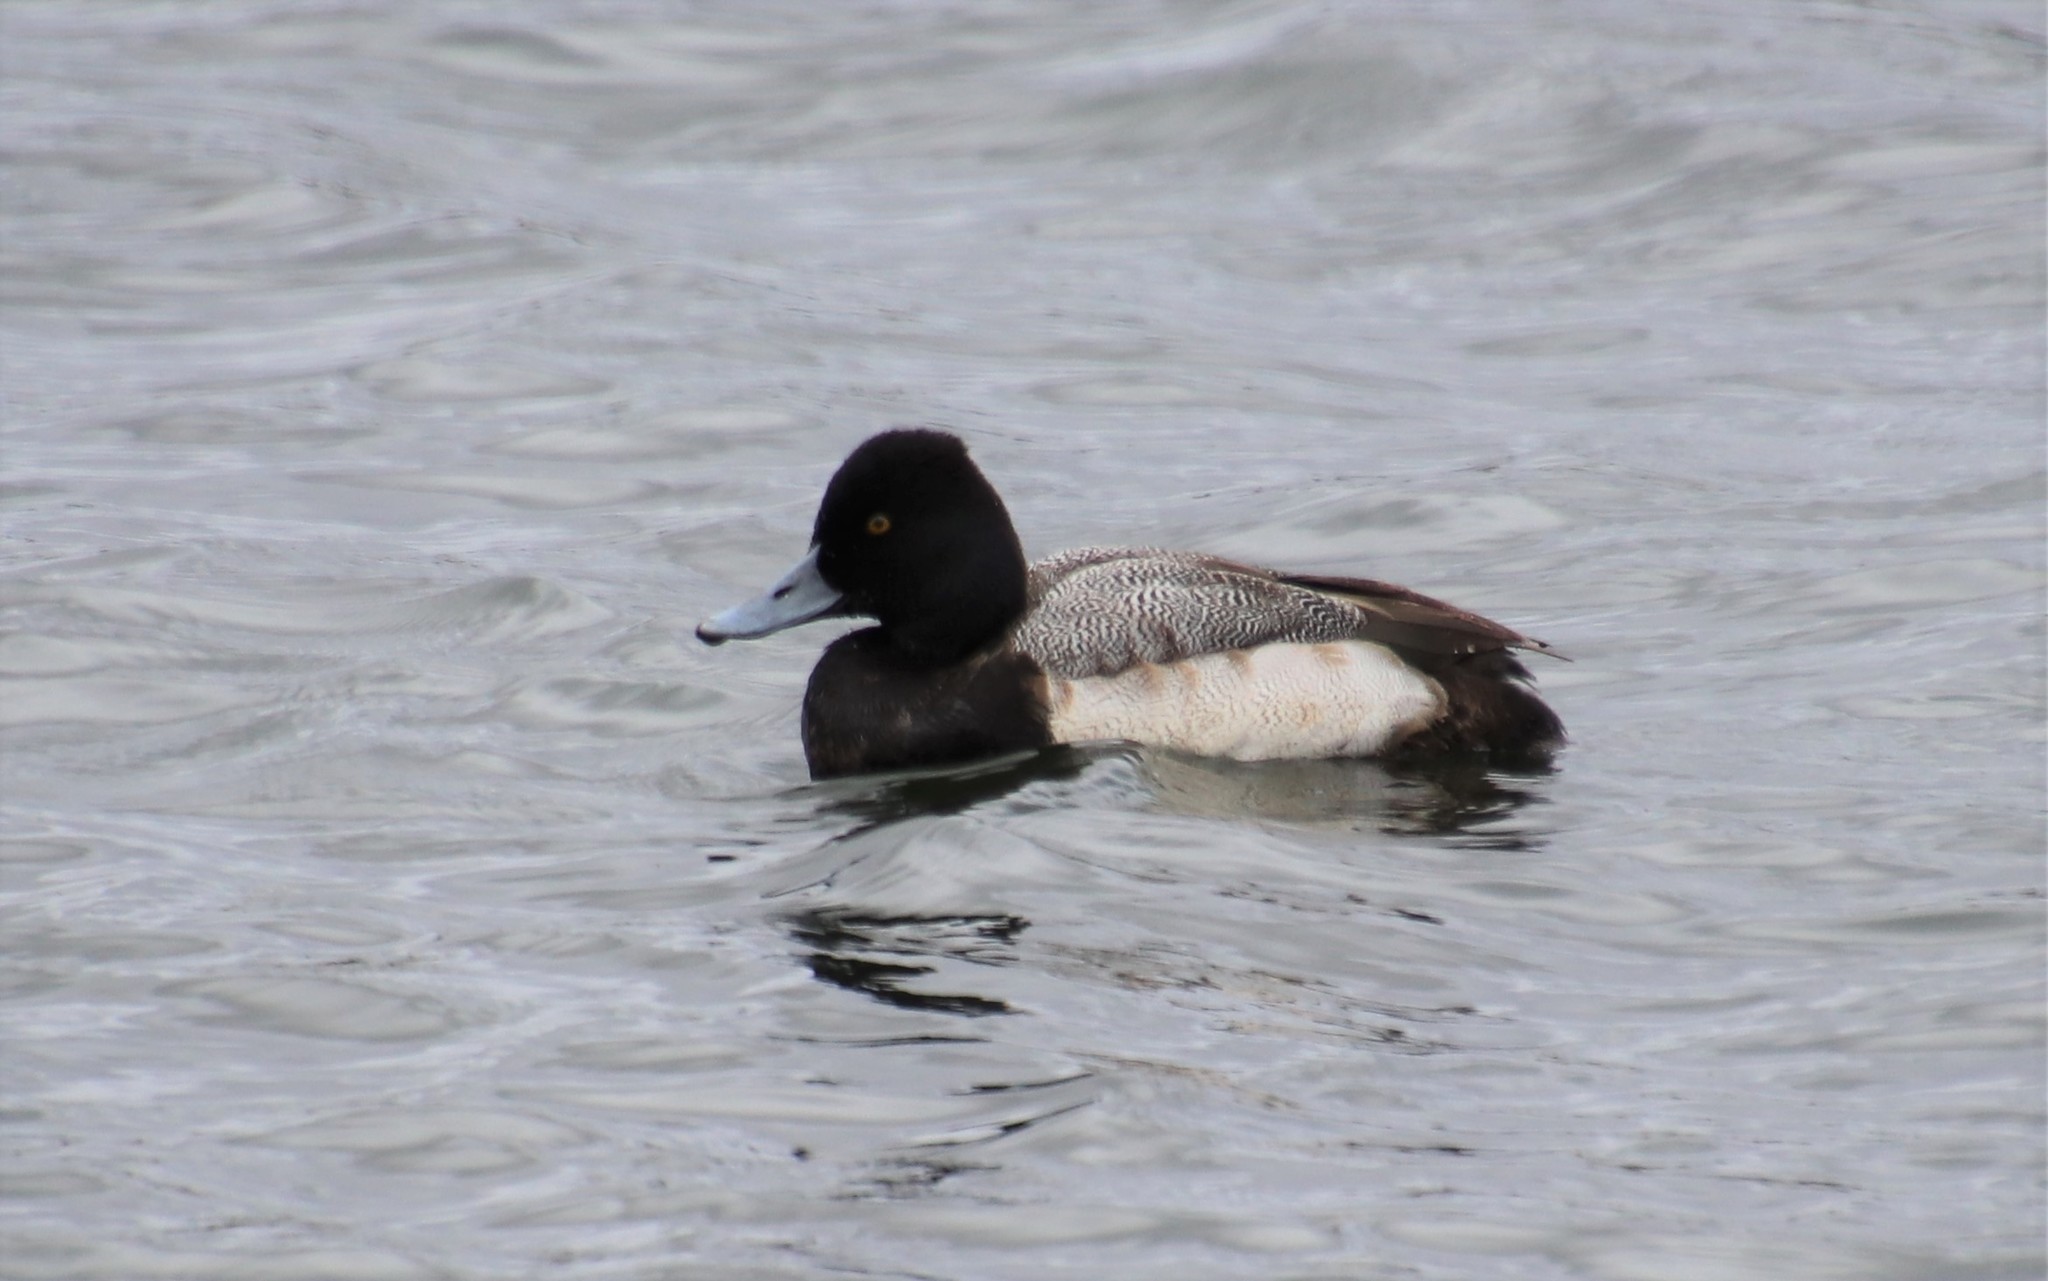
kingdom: Animalia
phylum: Chordata
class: Aves
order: Anseriformes
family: Anatidae
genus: Aythya
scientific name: Aythya affinis
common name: Lesser scaup
